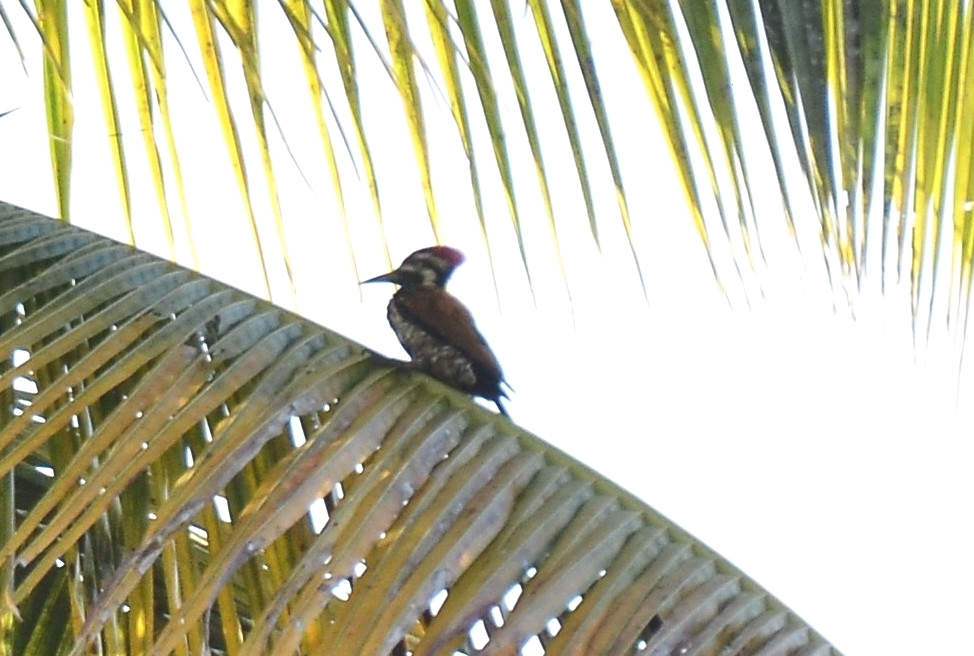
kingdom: Animalia
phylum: Chordata
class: Aves
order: Piciformes
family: Picidae
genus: Dinopium
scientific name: Dinopium benghalense
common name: Black-rumped flameback
